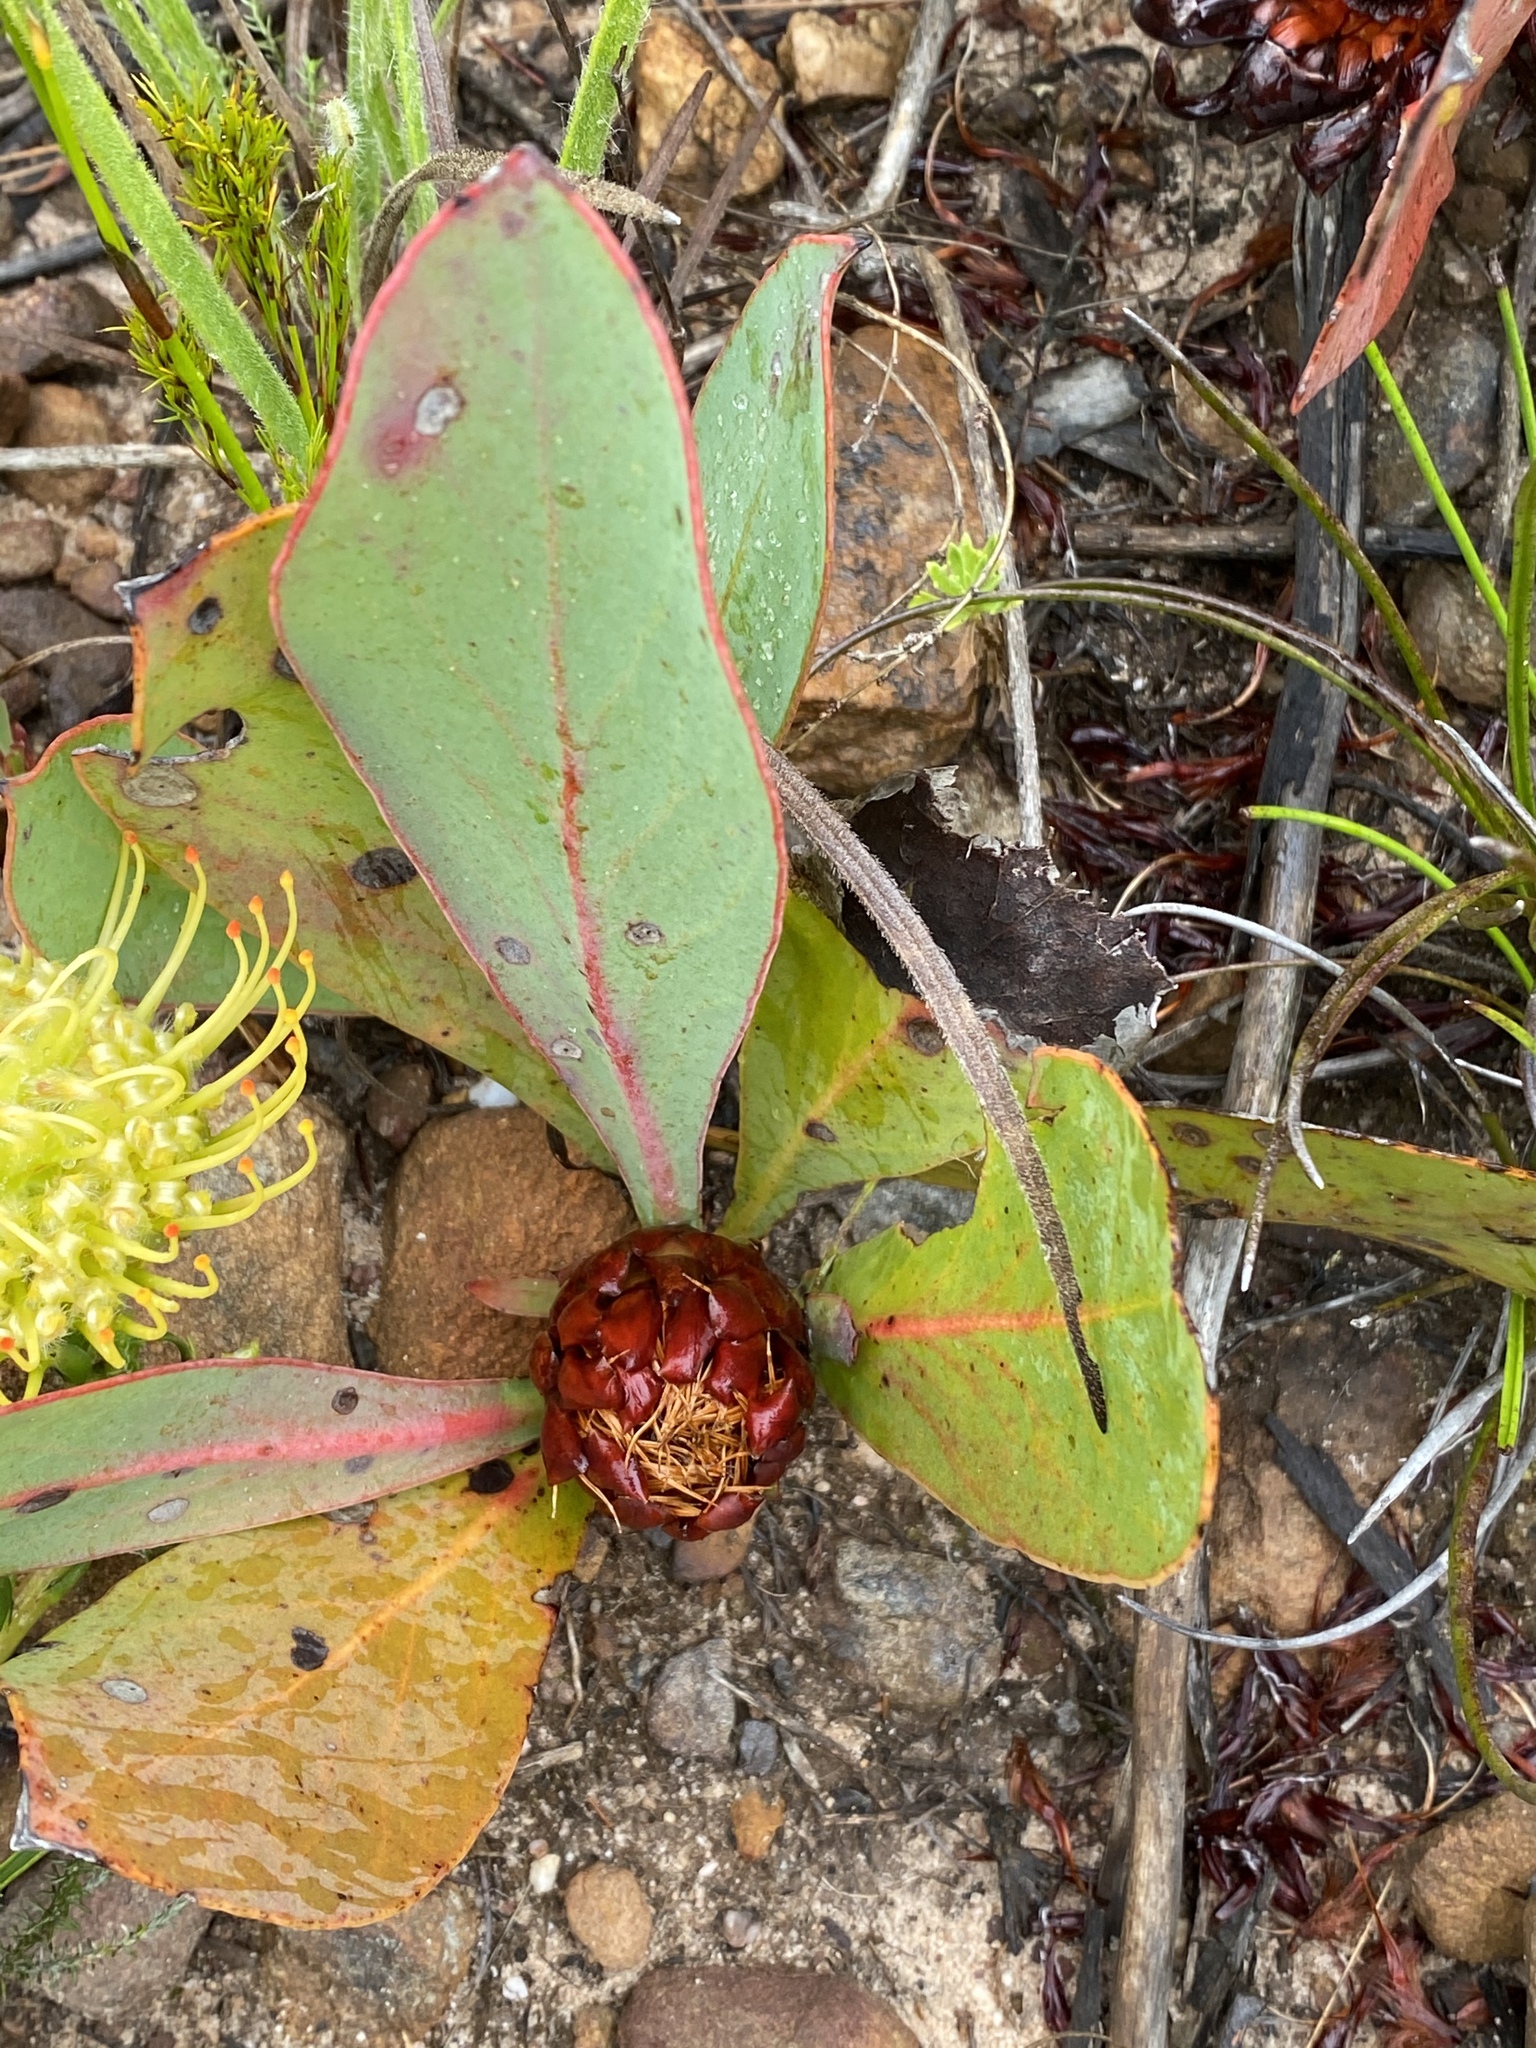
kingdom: Plantae
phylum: Tracheophyta
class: Magnoliopsida
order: Proteales
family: Proteaceae
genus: Protea
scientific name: Protea acaulos
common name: Common ground sugarbush
